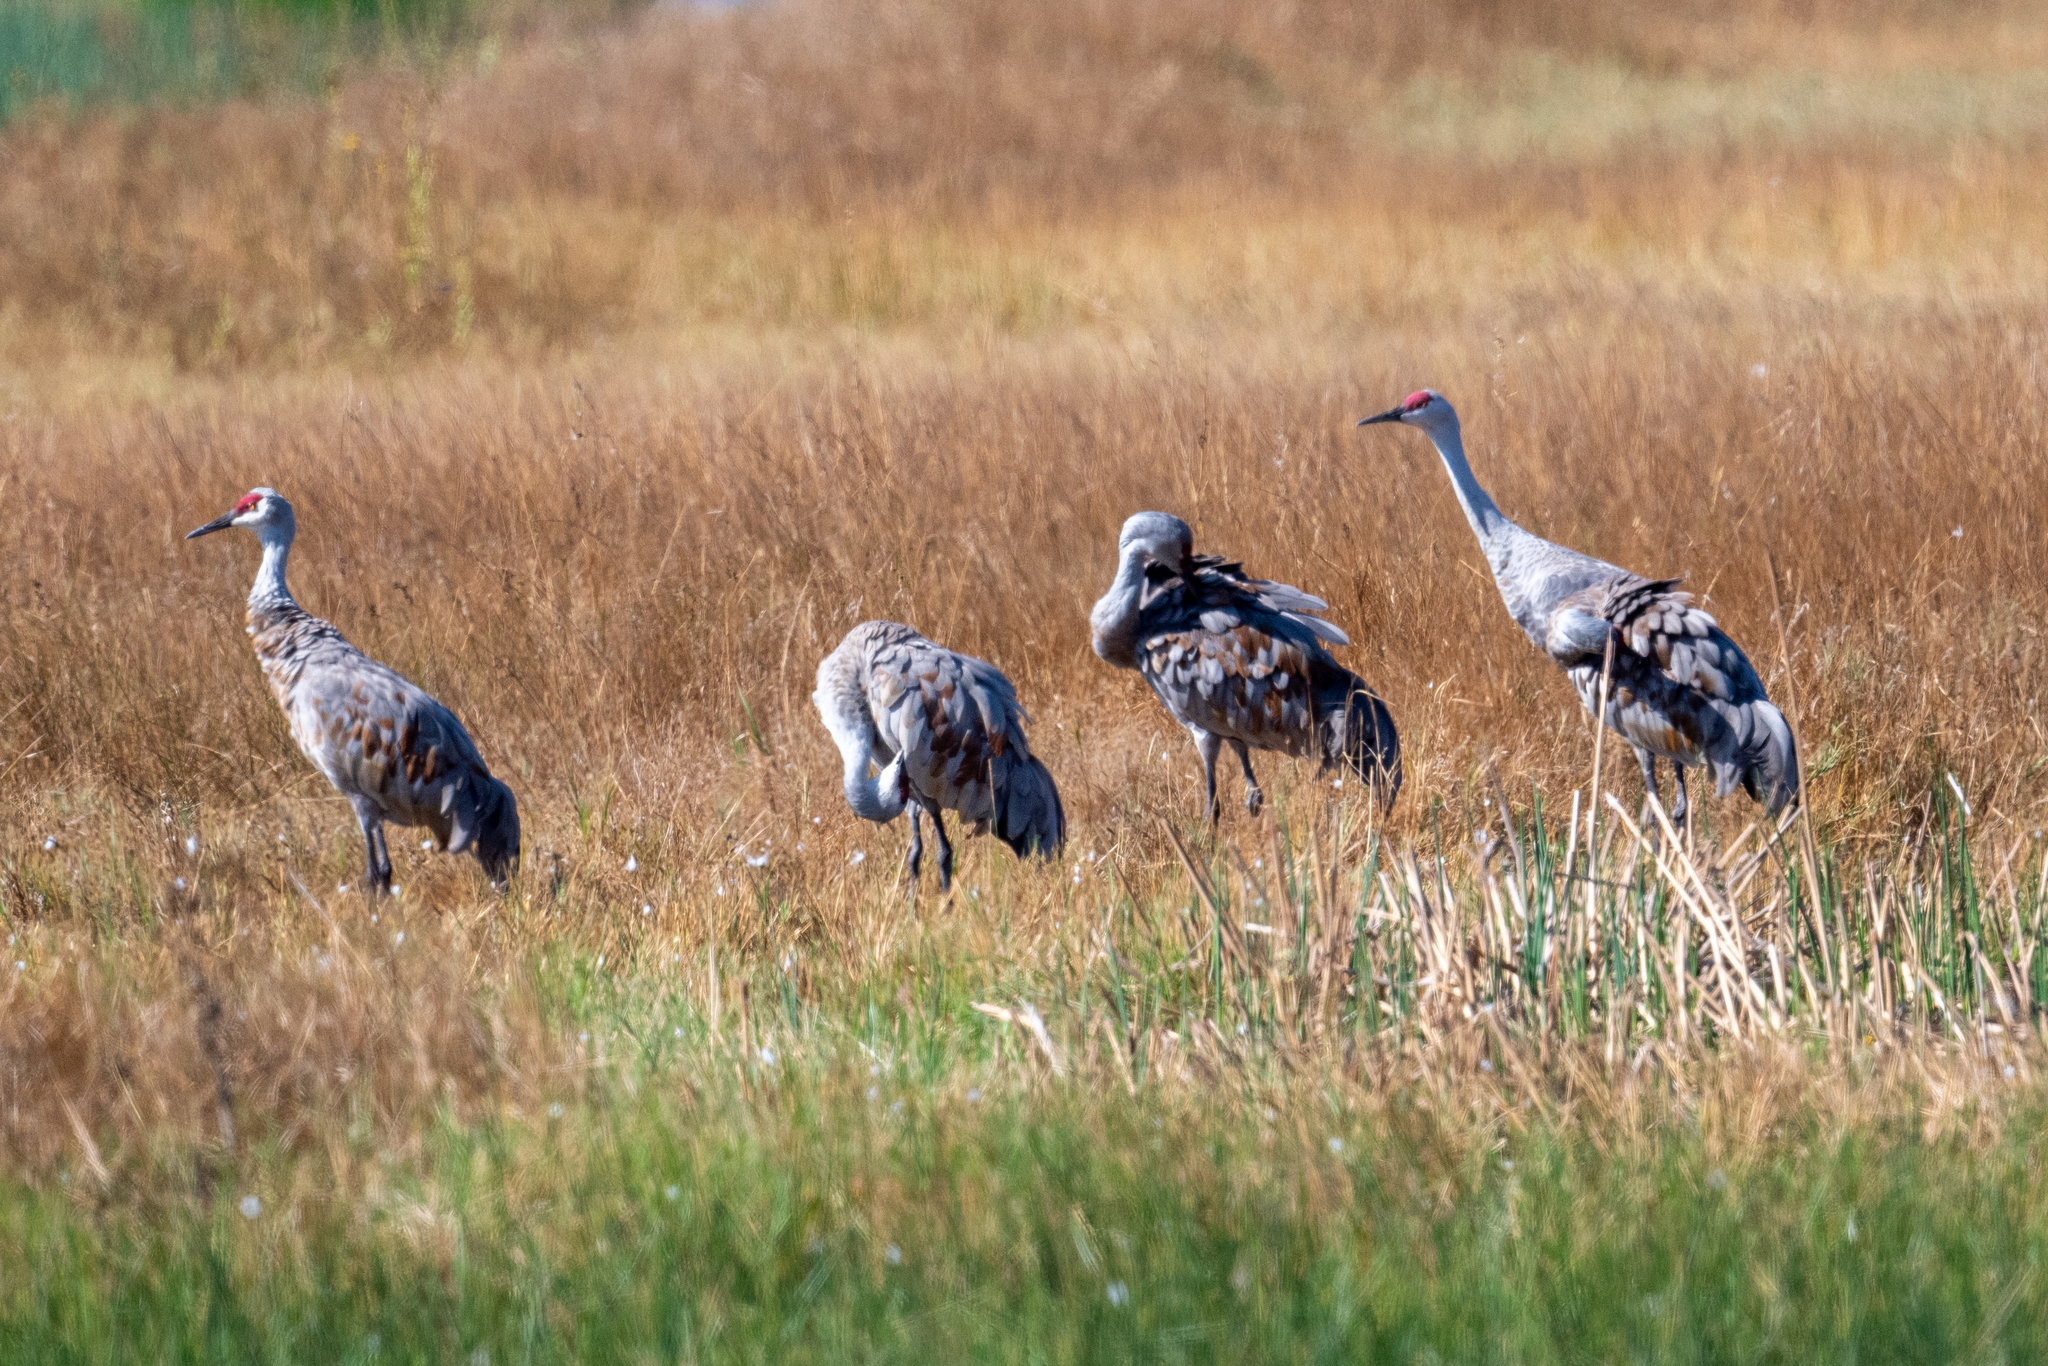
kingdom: Animalia
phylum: Chordata
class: Aves
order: Gruiformes
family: Gruidae
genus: Grus
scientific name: Grus canadensis
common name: Sandhill crane
